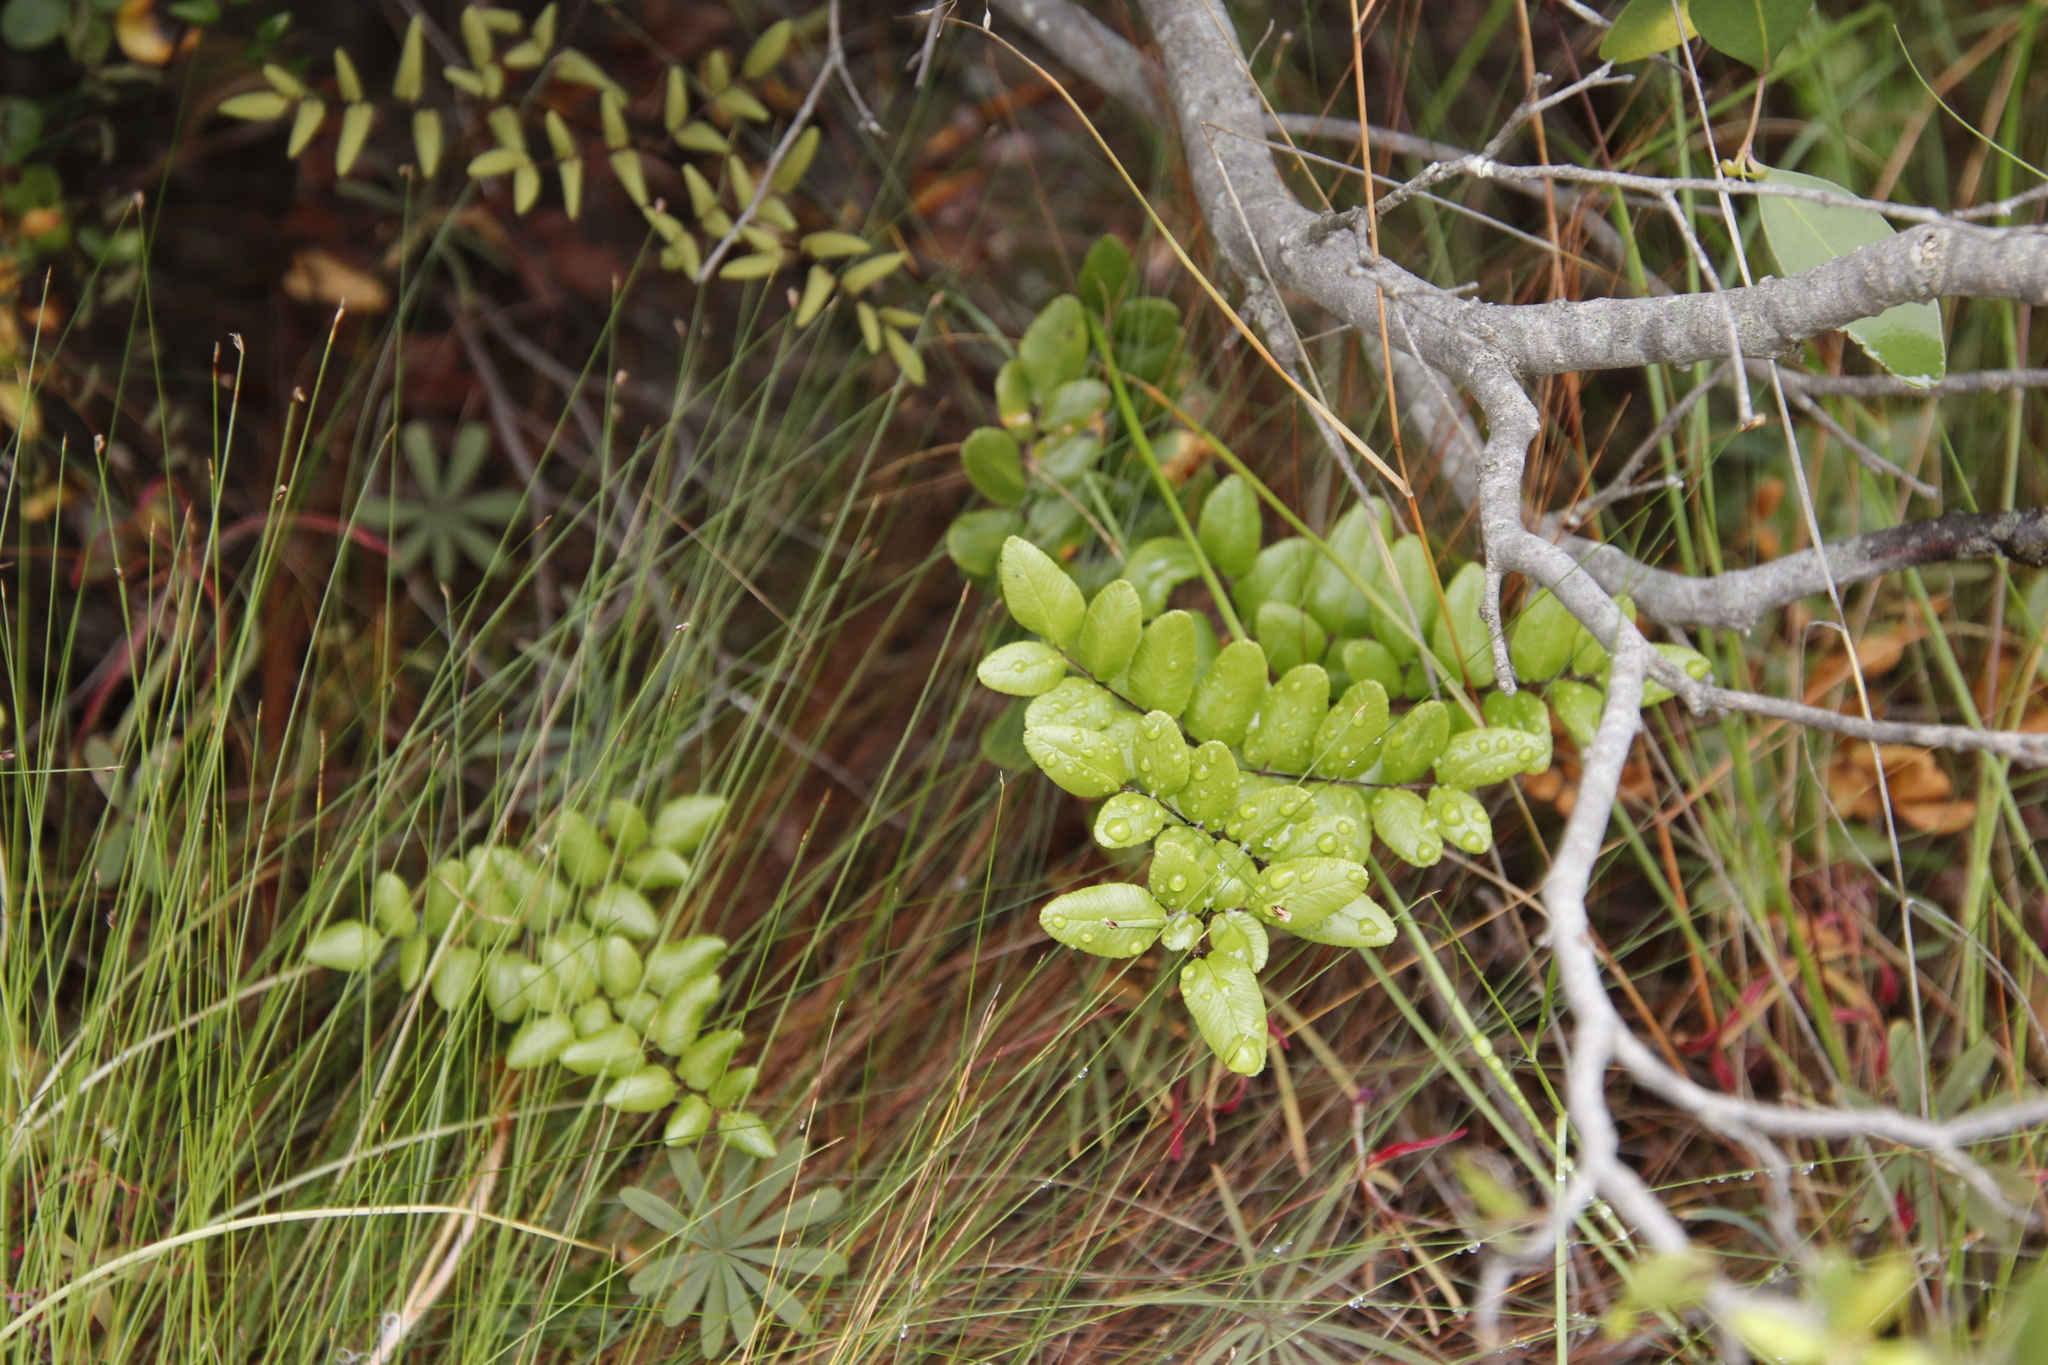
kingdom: Plantae
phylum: Tracheophyta
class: Polypodiopsida
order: Polypodiales
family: Pteridaceae
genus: Pellaea
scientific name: Pellaea pteroides
